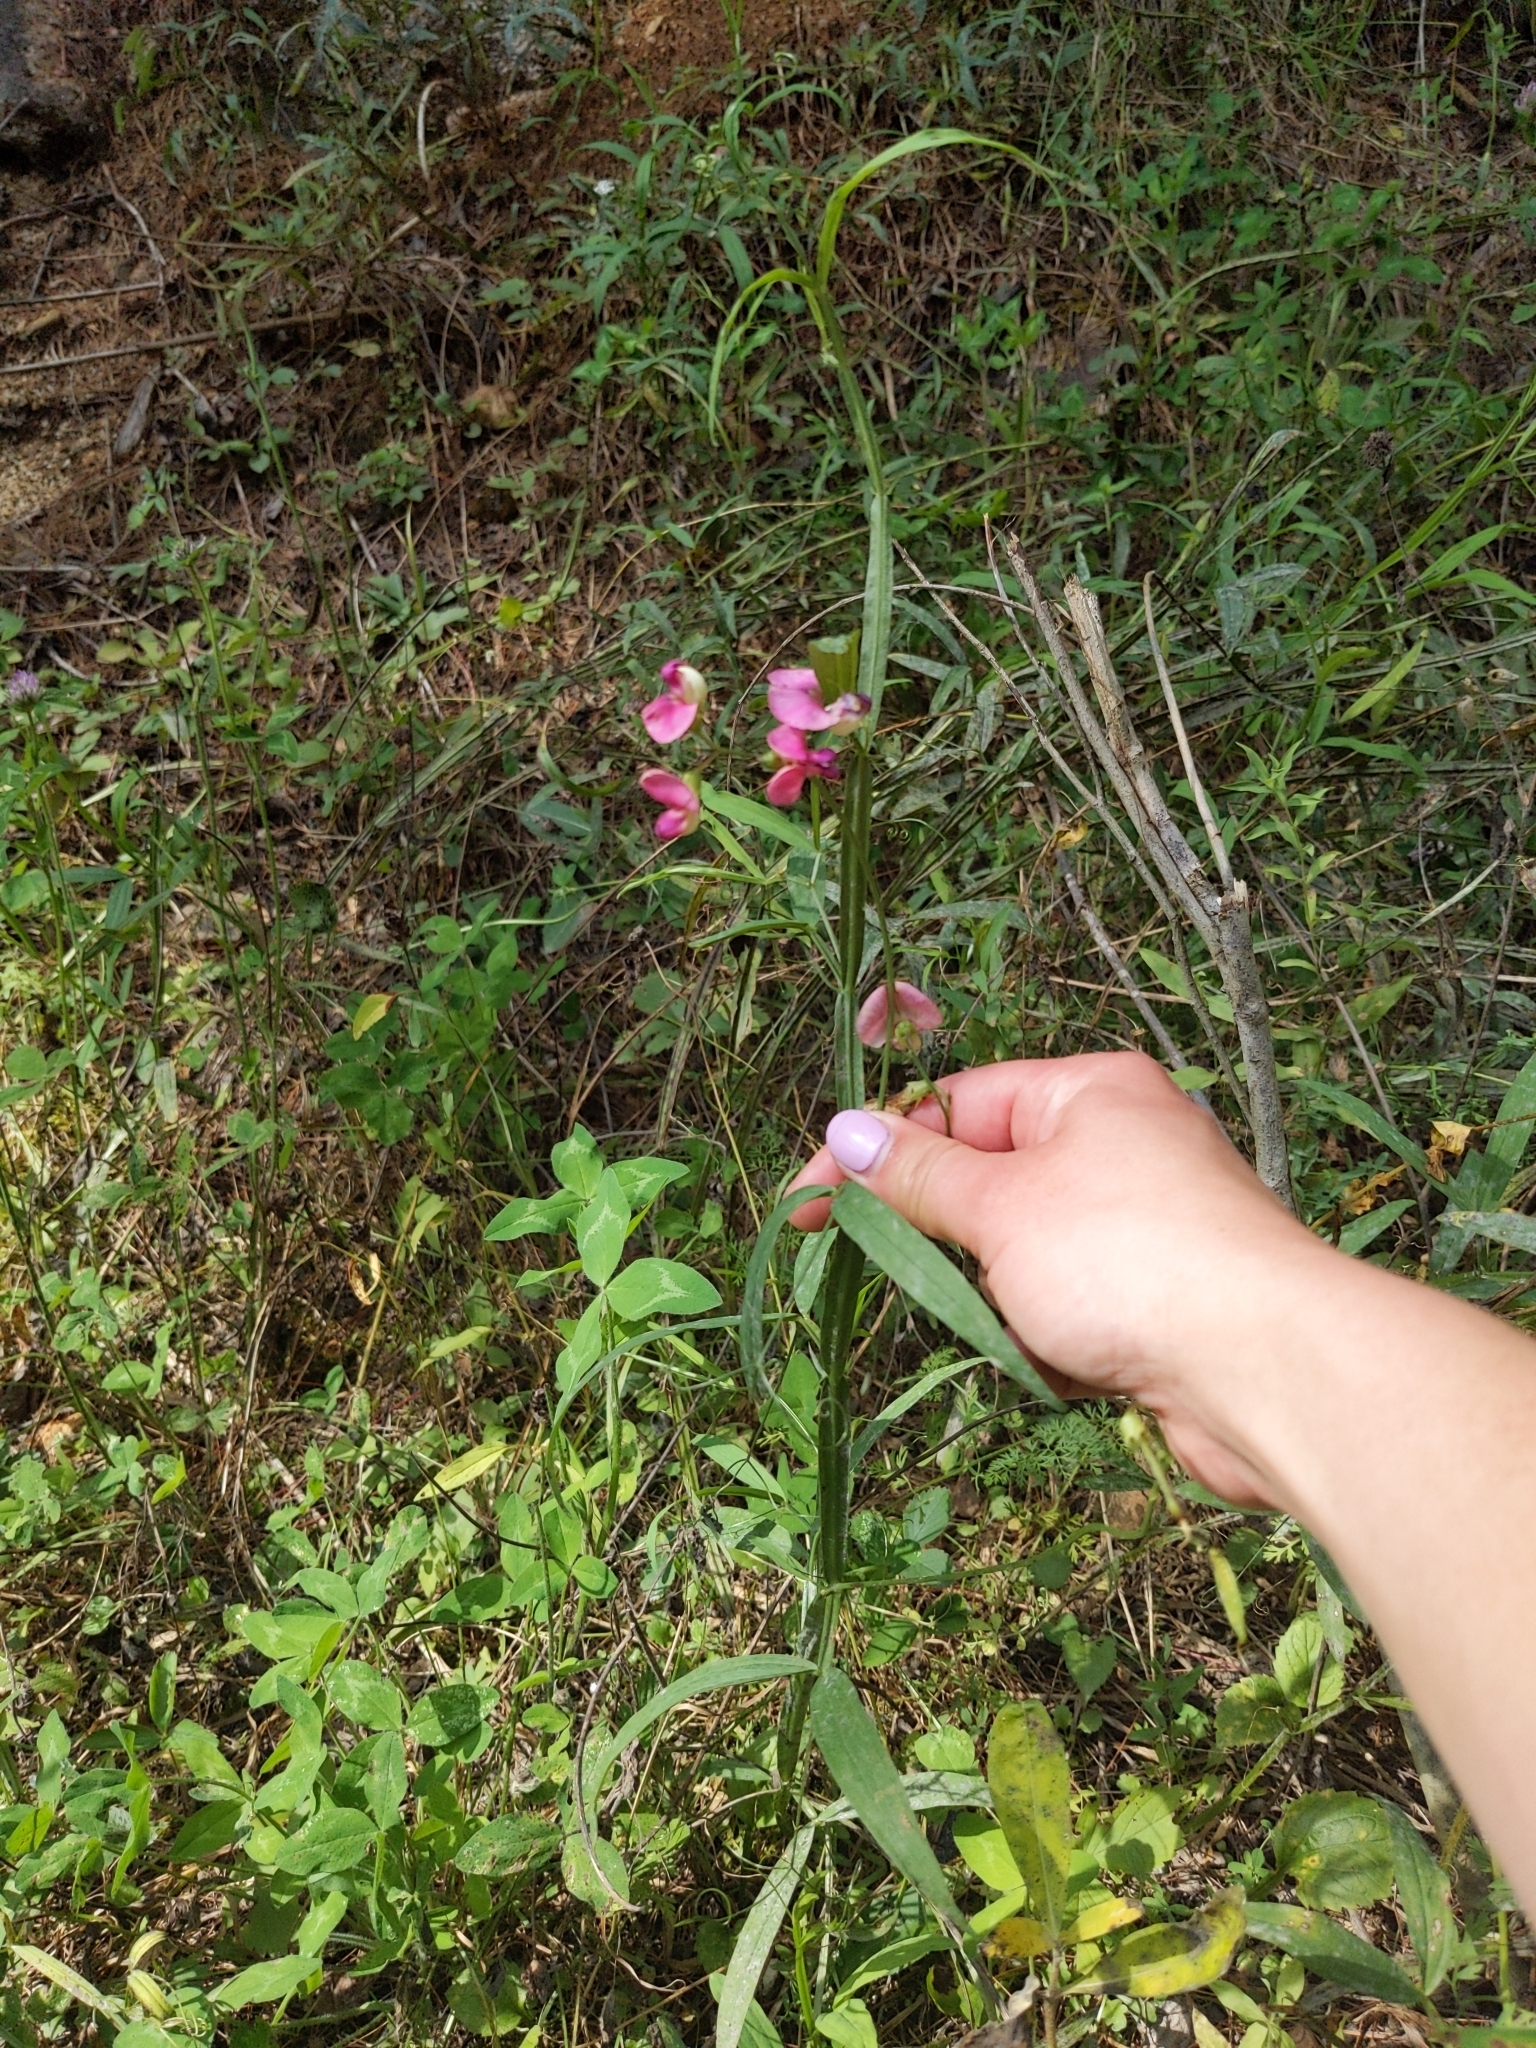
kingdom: Plantae
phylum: Tracheophyta
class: Magnoliopsida
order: Fabales
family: Fabaceae
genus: Lathyrus
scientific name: Lathyrus sylvestris
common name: Flat pea
